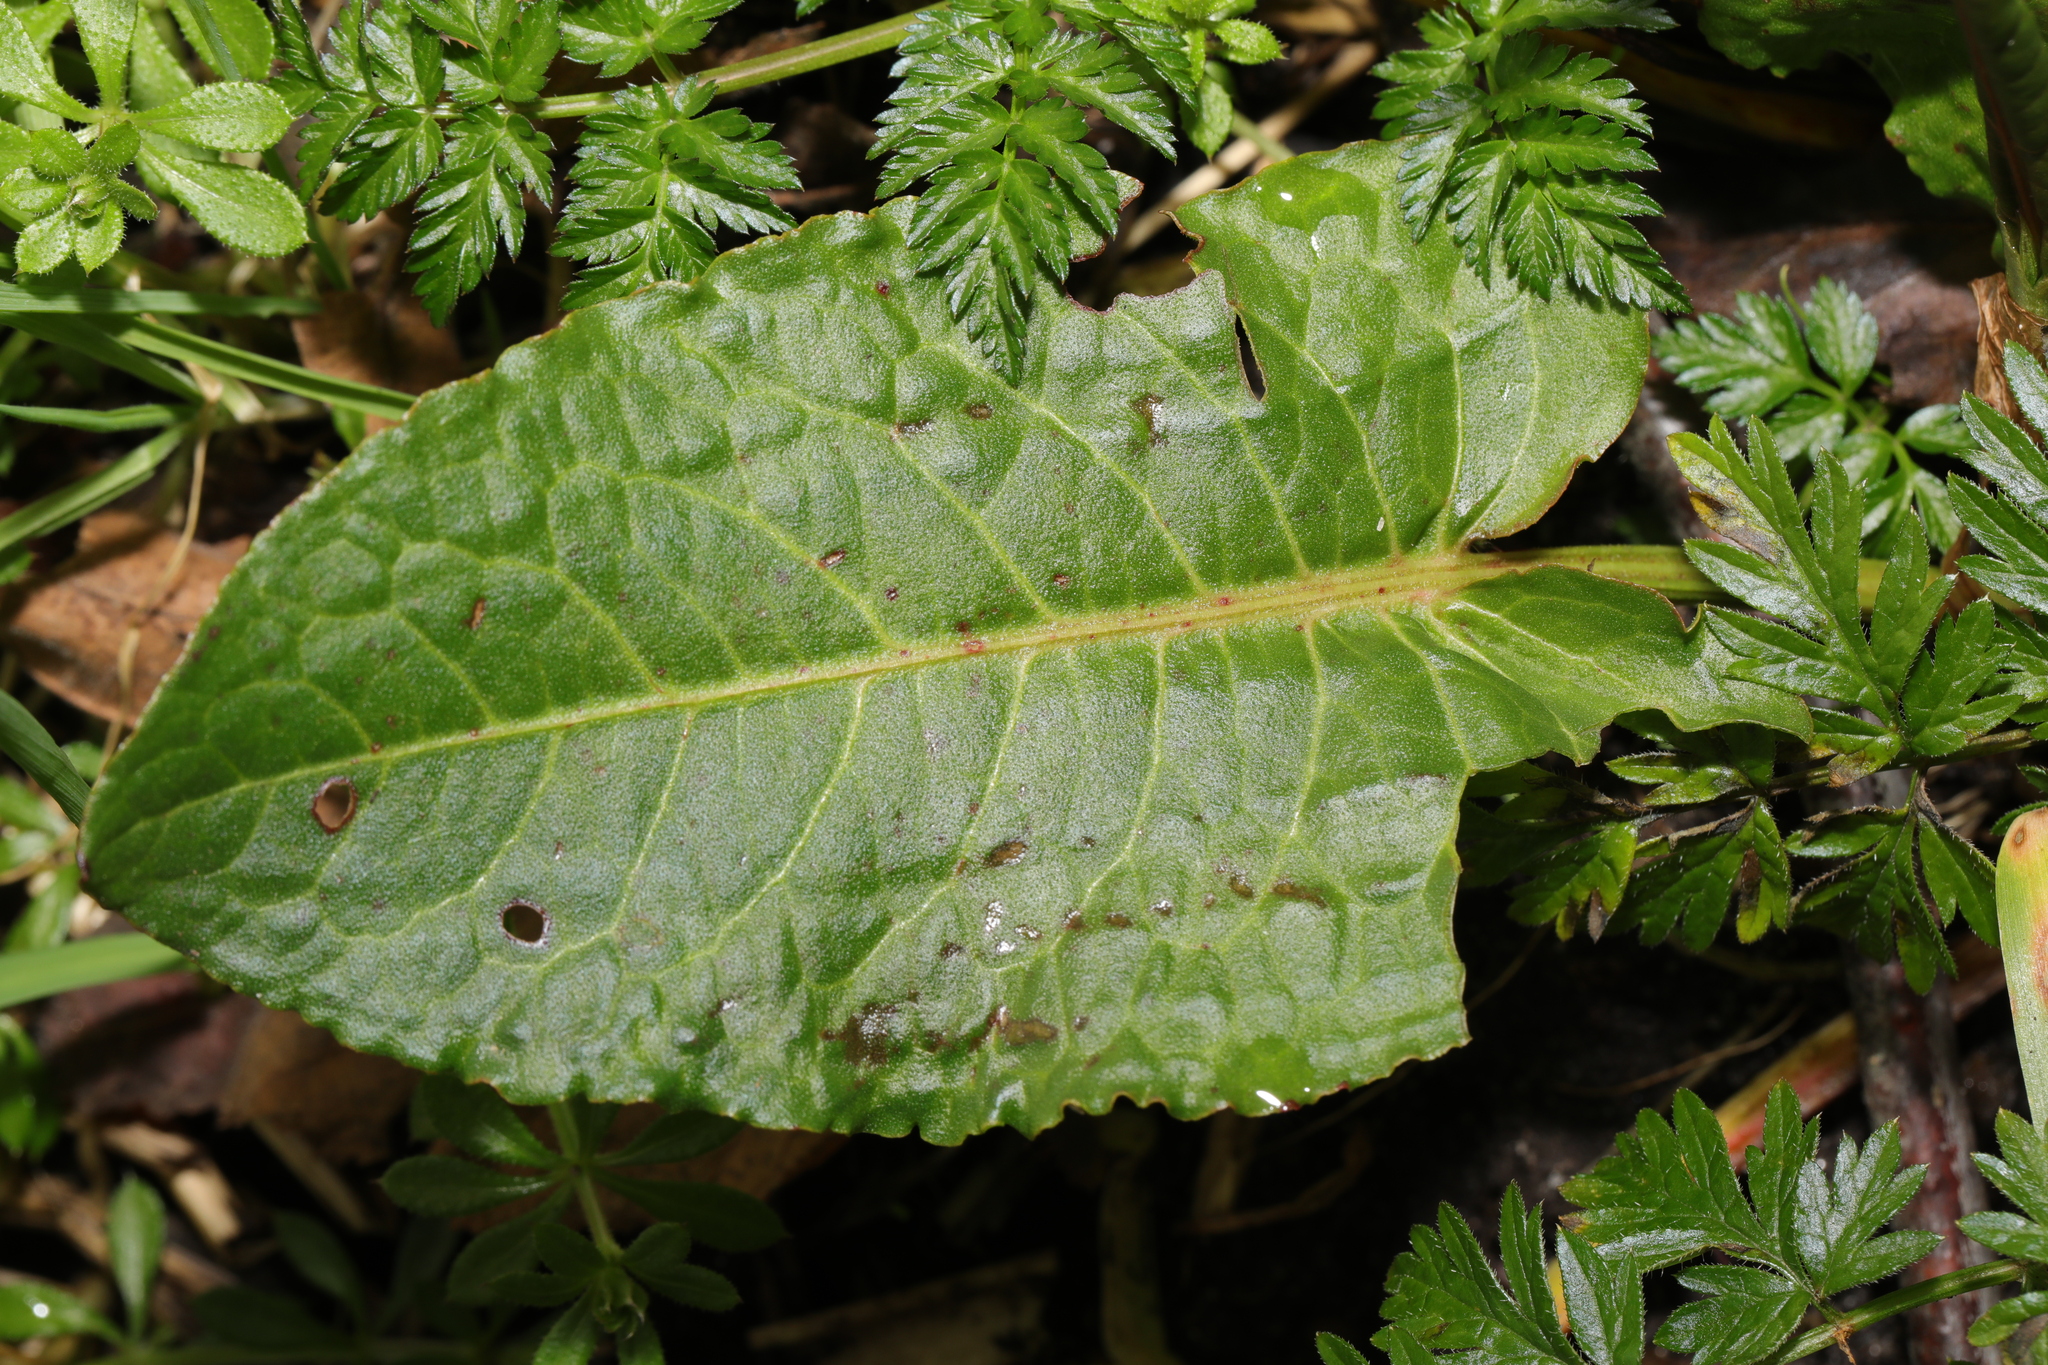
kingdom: Plantae
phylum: Tracheophyta
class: Magnoliopsida
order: Caryophyllales
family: Polygonaceae
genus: Rumex
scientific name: Rumex obtusifolius
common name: Bitter dock
